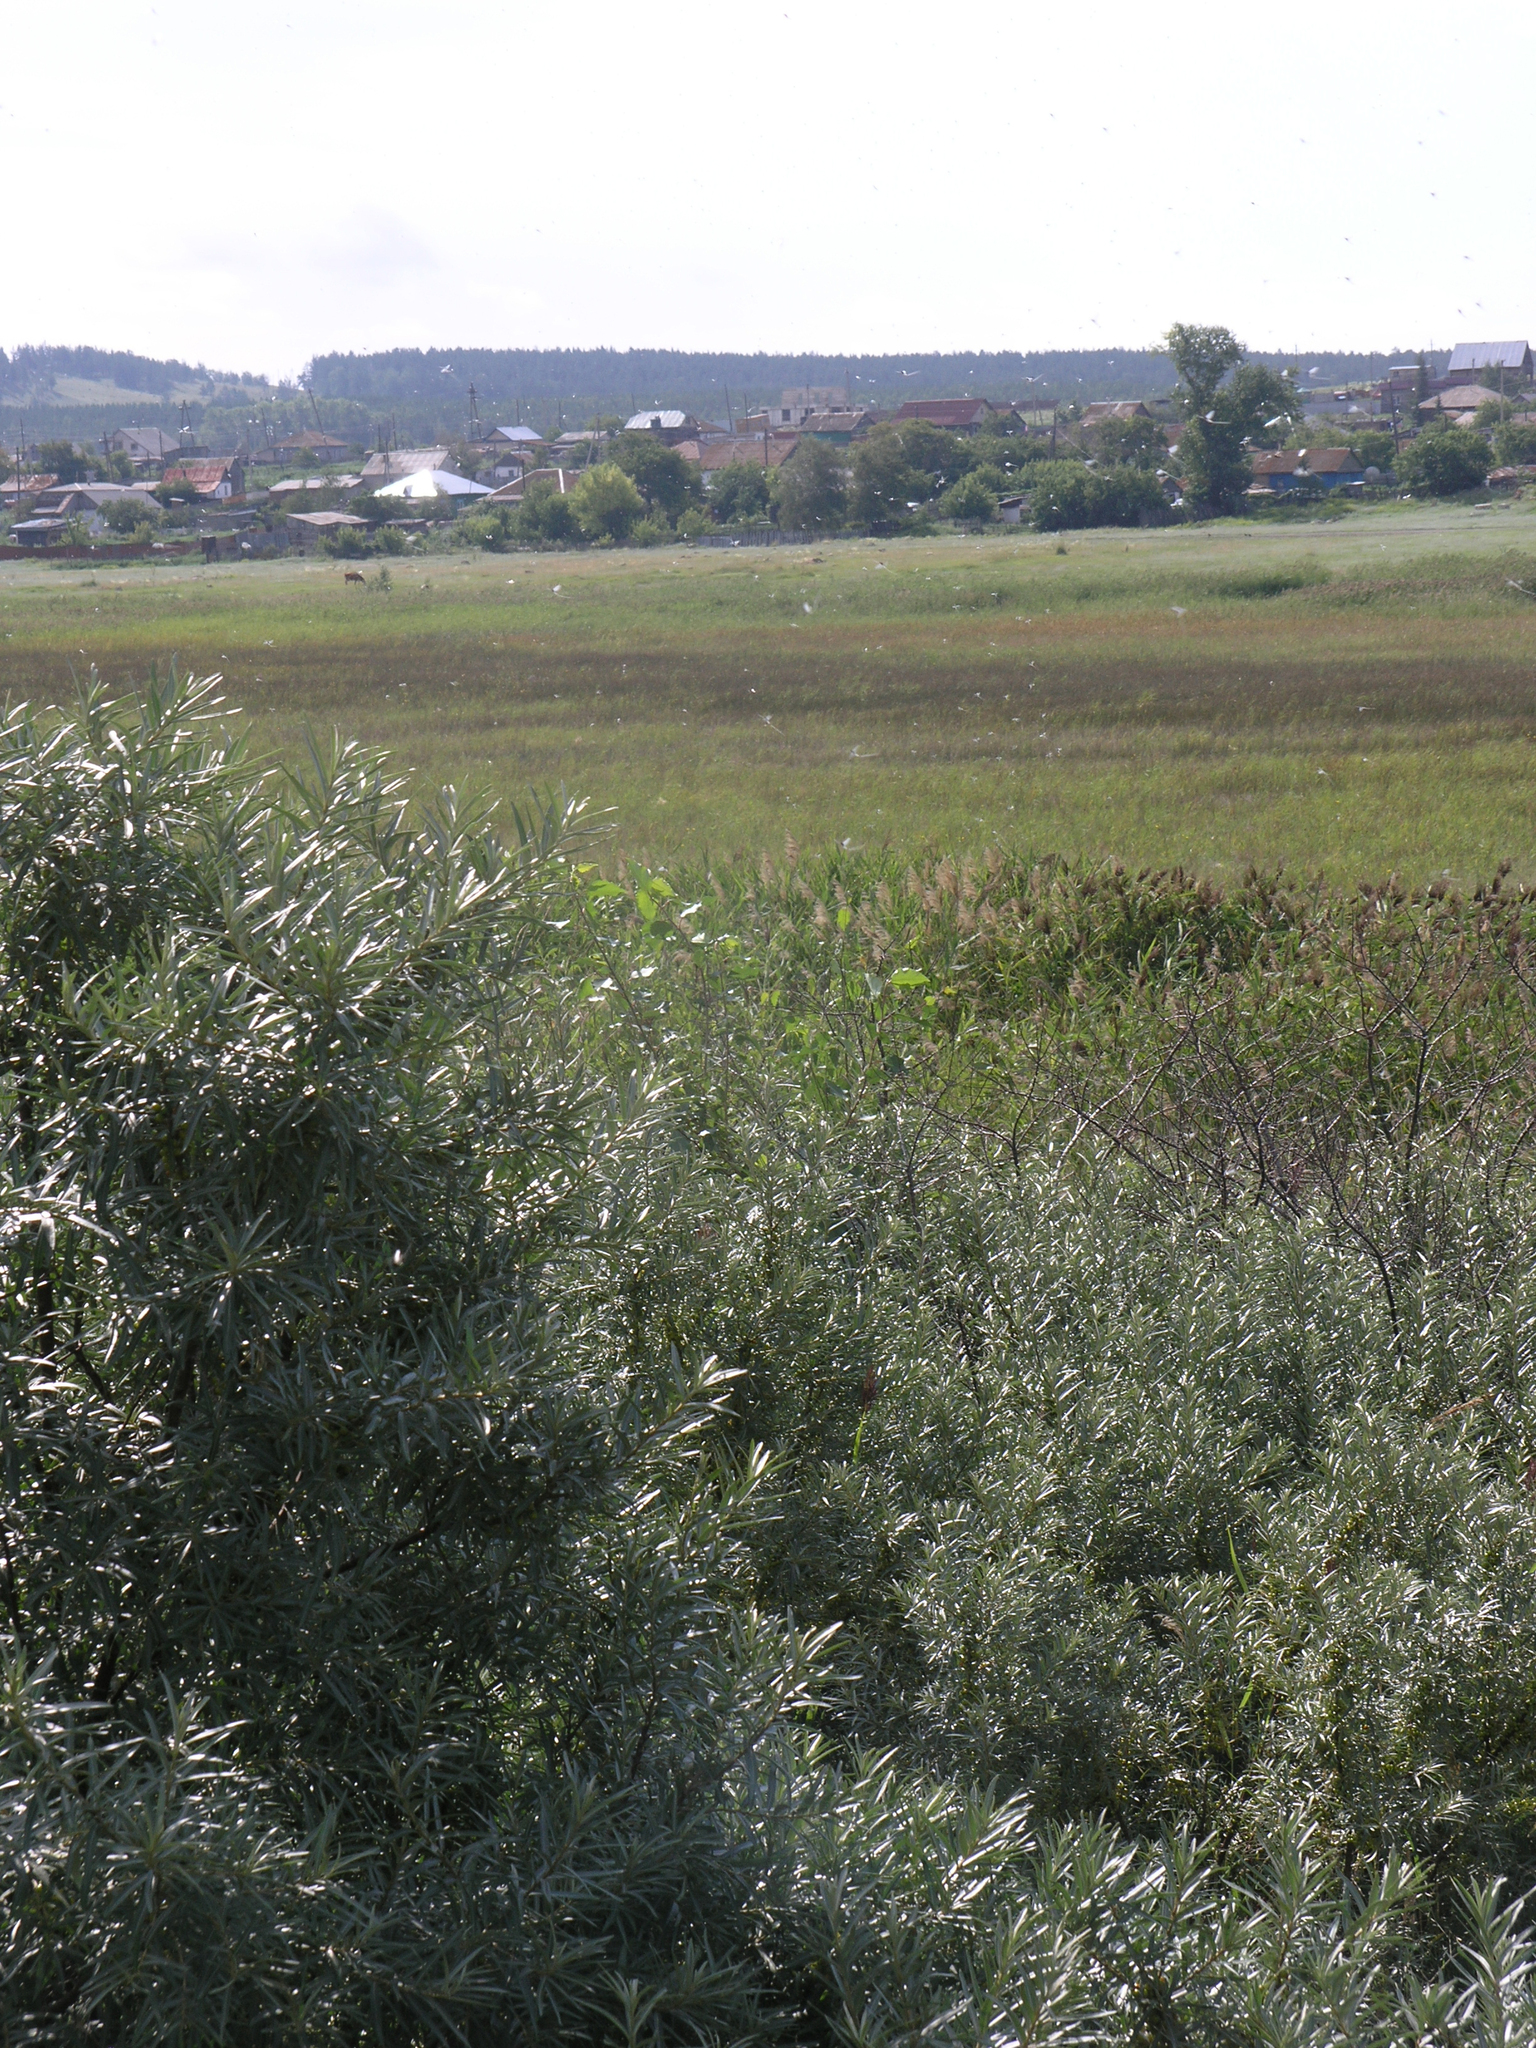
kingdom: Plantae
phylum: Tracheophyta
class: Magnoliopsida
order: Rosales
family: Elaeagnaceae
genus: Hippophae
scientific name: Hippophae rhamnoides
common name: Sea-buckthorn
